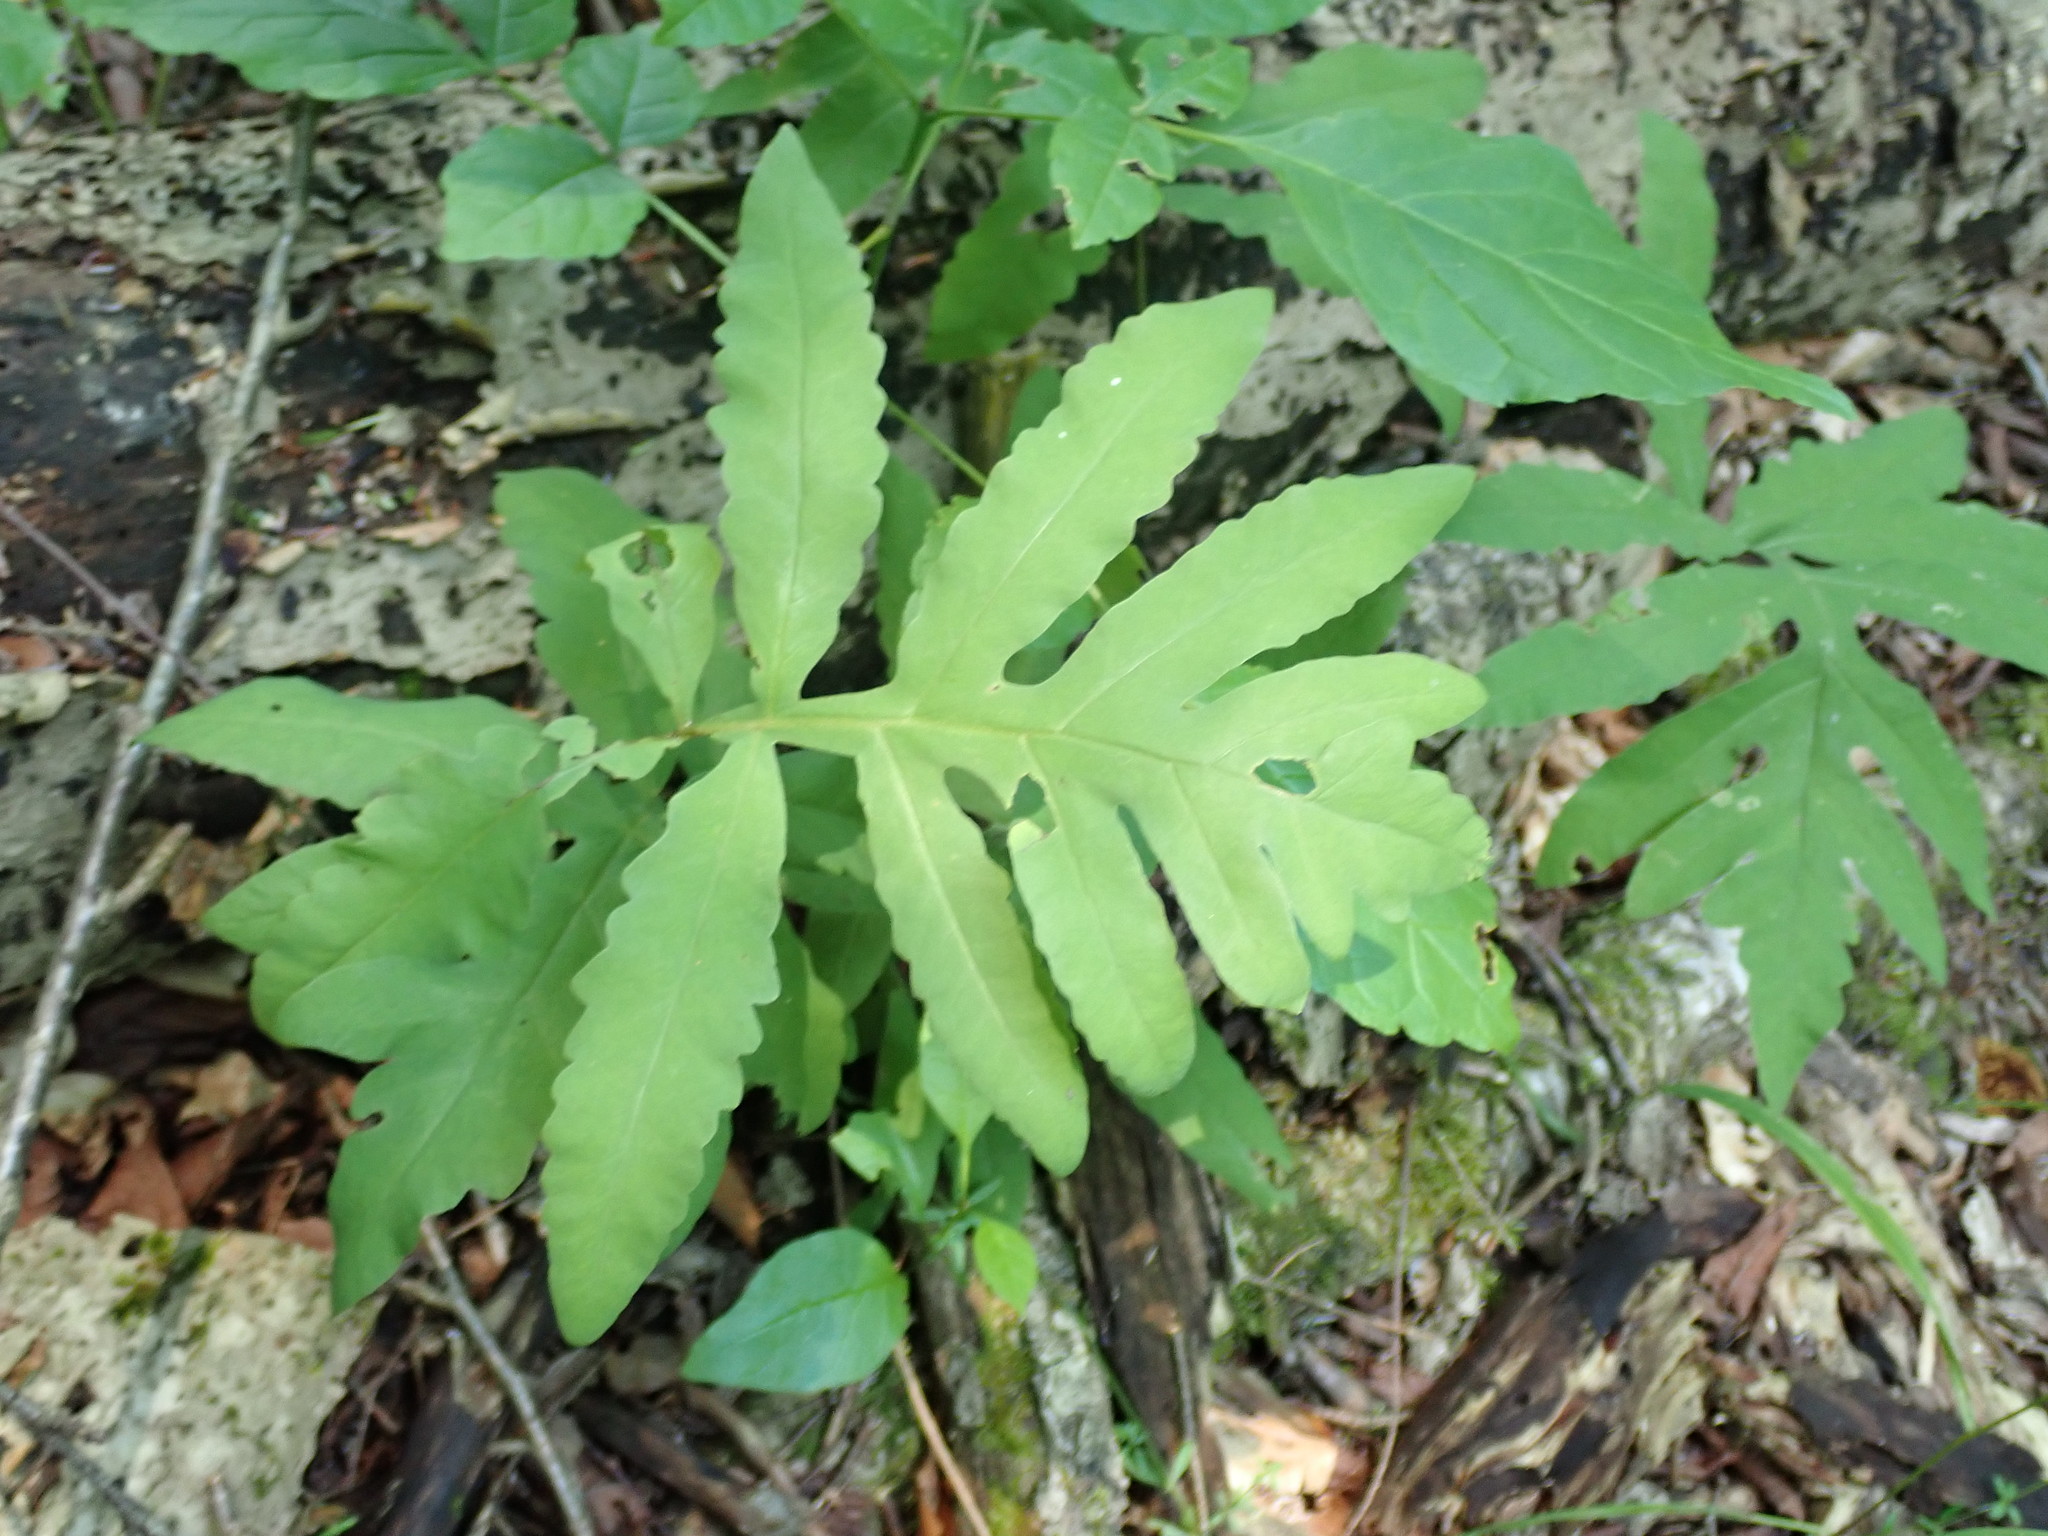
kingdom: Plantae
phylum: Tracheophyta
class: Polypodiopsida
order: Polypodiales
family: Onocleaceae
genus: Onoclea
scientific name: Onoclea sensibilis
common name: Sensitive fern
